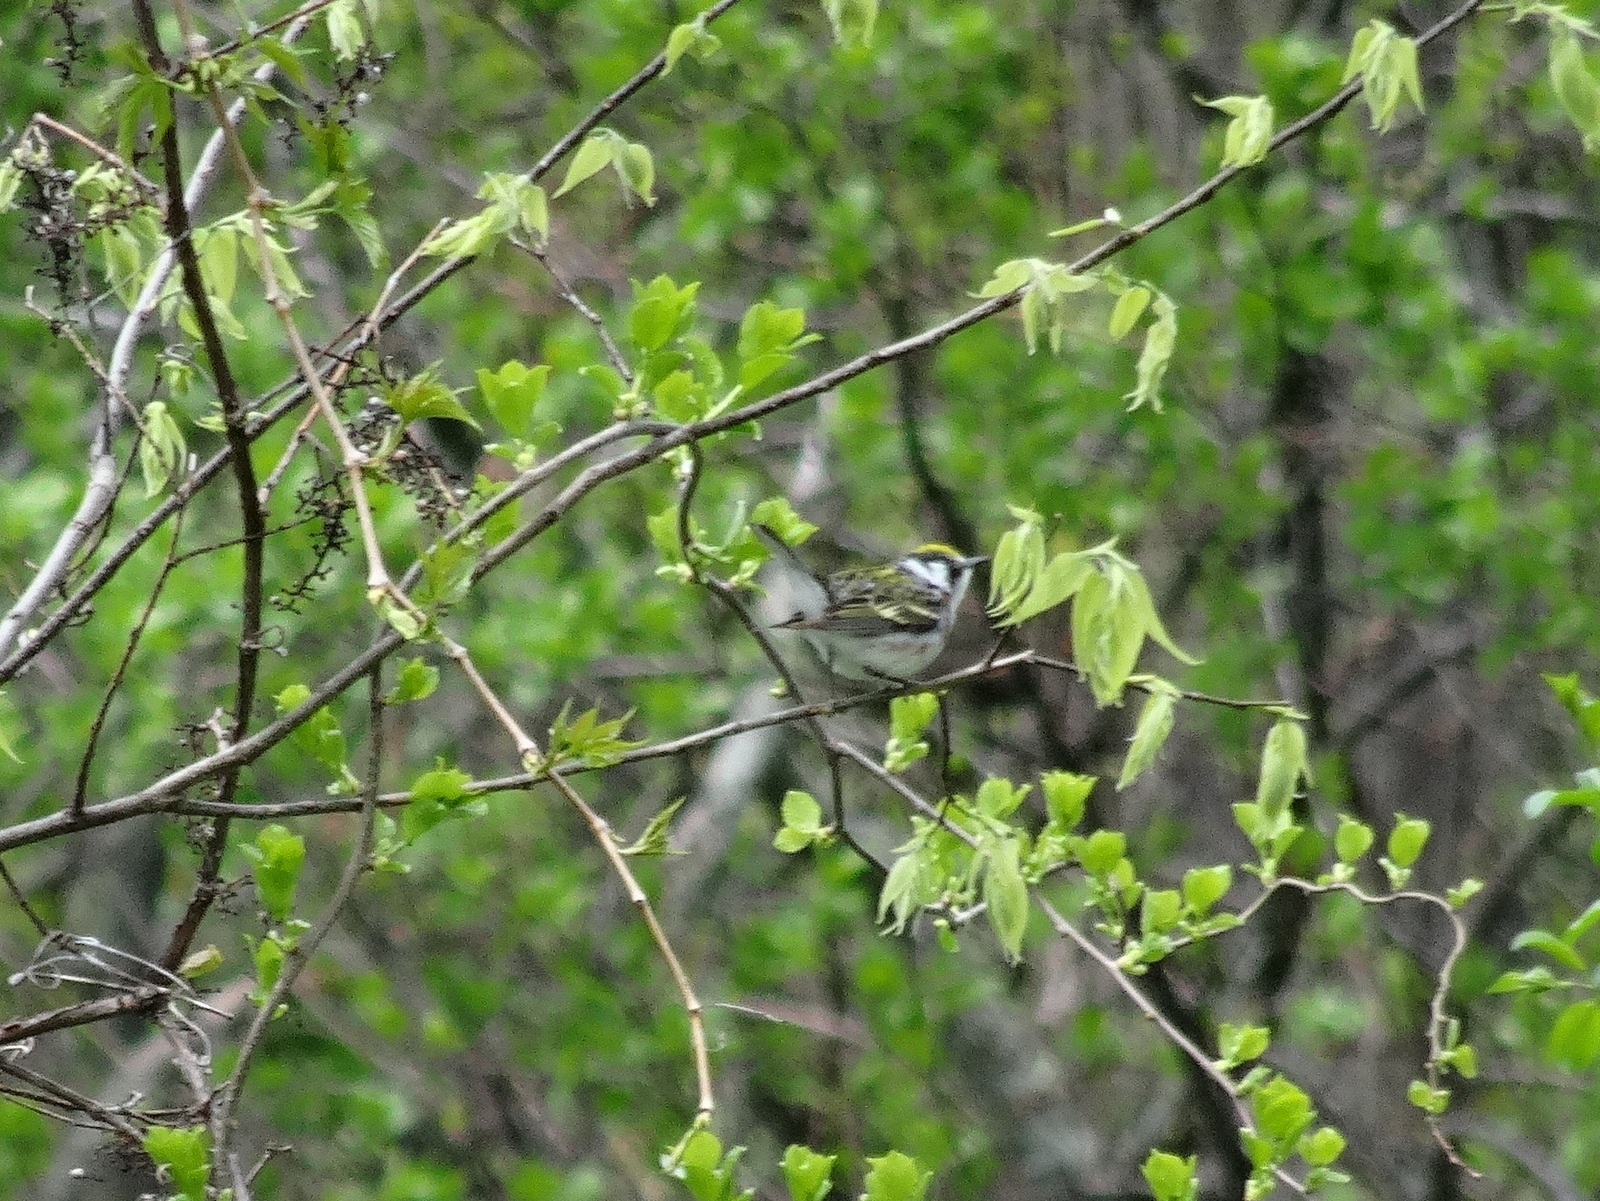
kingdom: Animalia
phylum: Chordata
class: Aves
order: Passeriformes
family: Parulidae
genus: Setophaga
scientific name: Setophaga pensylvanica
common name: Chestnut-sided warbler
